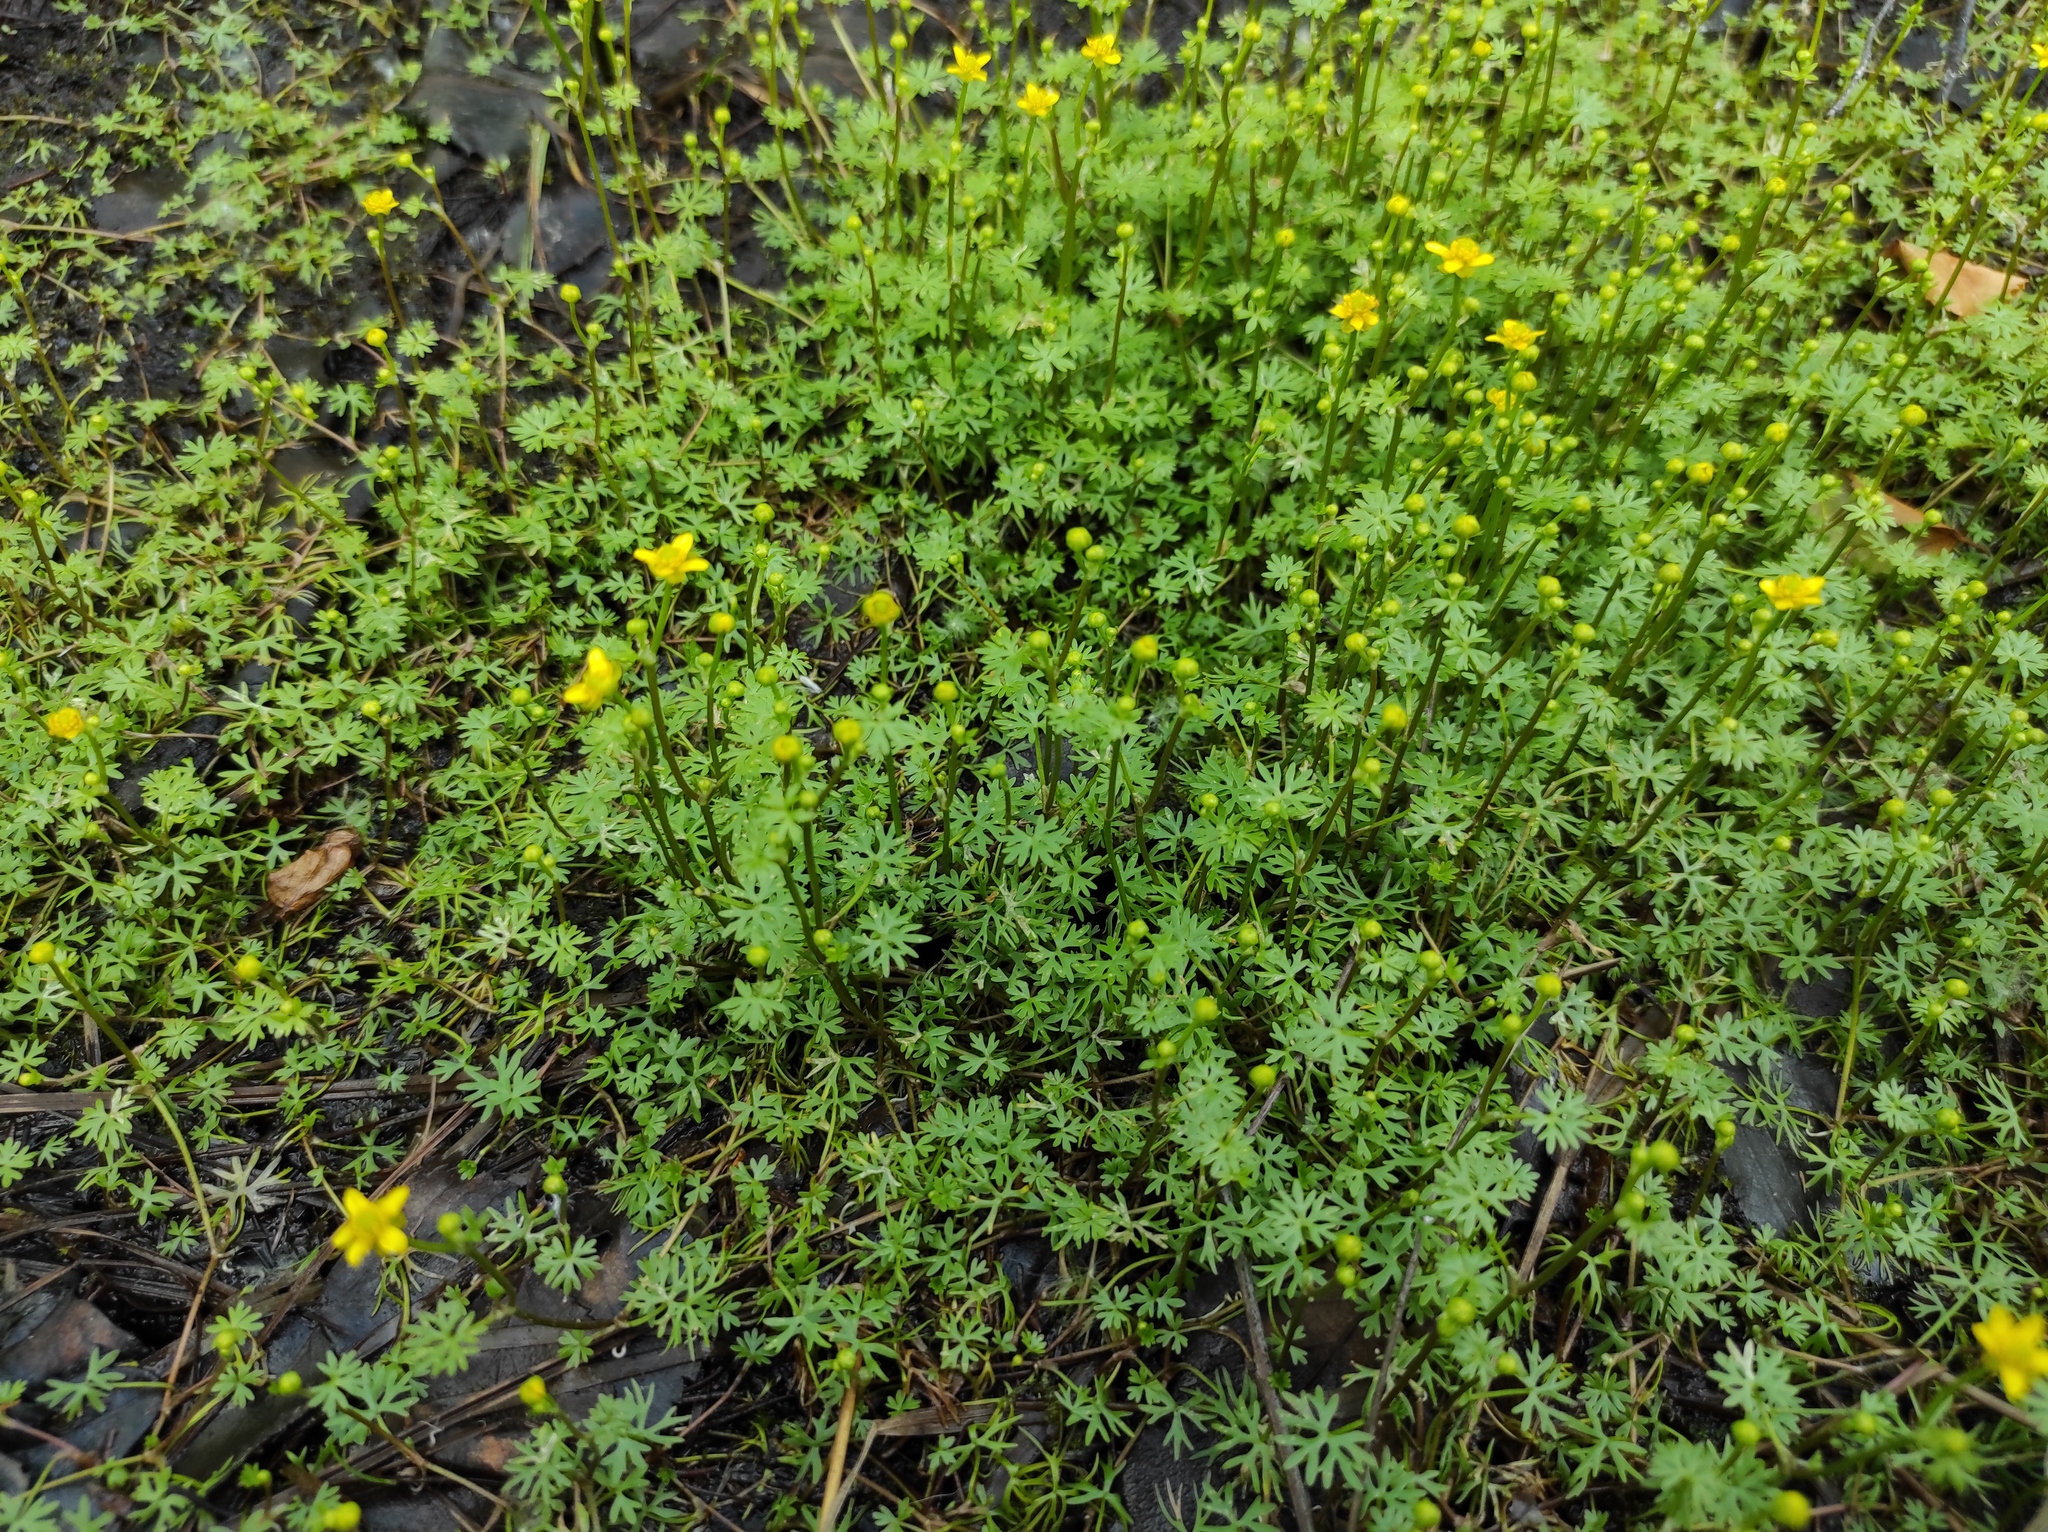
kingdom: Plantae
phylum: Tracheophyta
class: Magnoliopsida
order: Ranunculales
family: Ranunculaceae
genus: Ranunculus
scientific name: Ranunculus gmelinii
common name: Gmelin's buttercup
